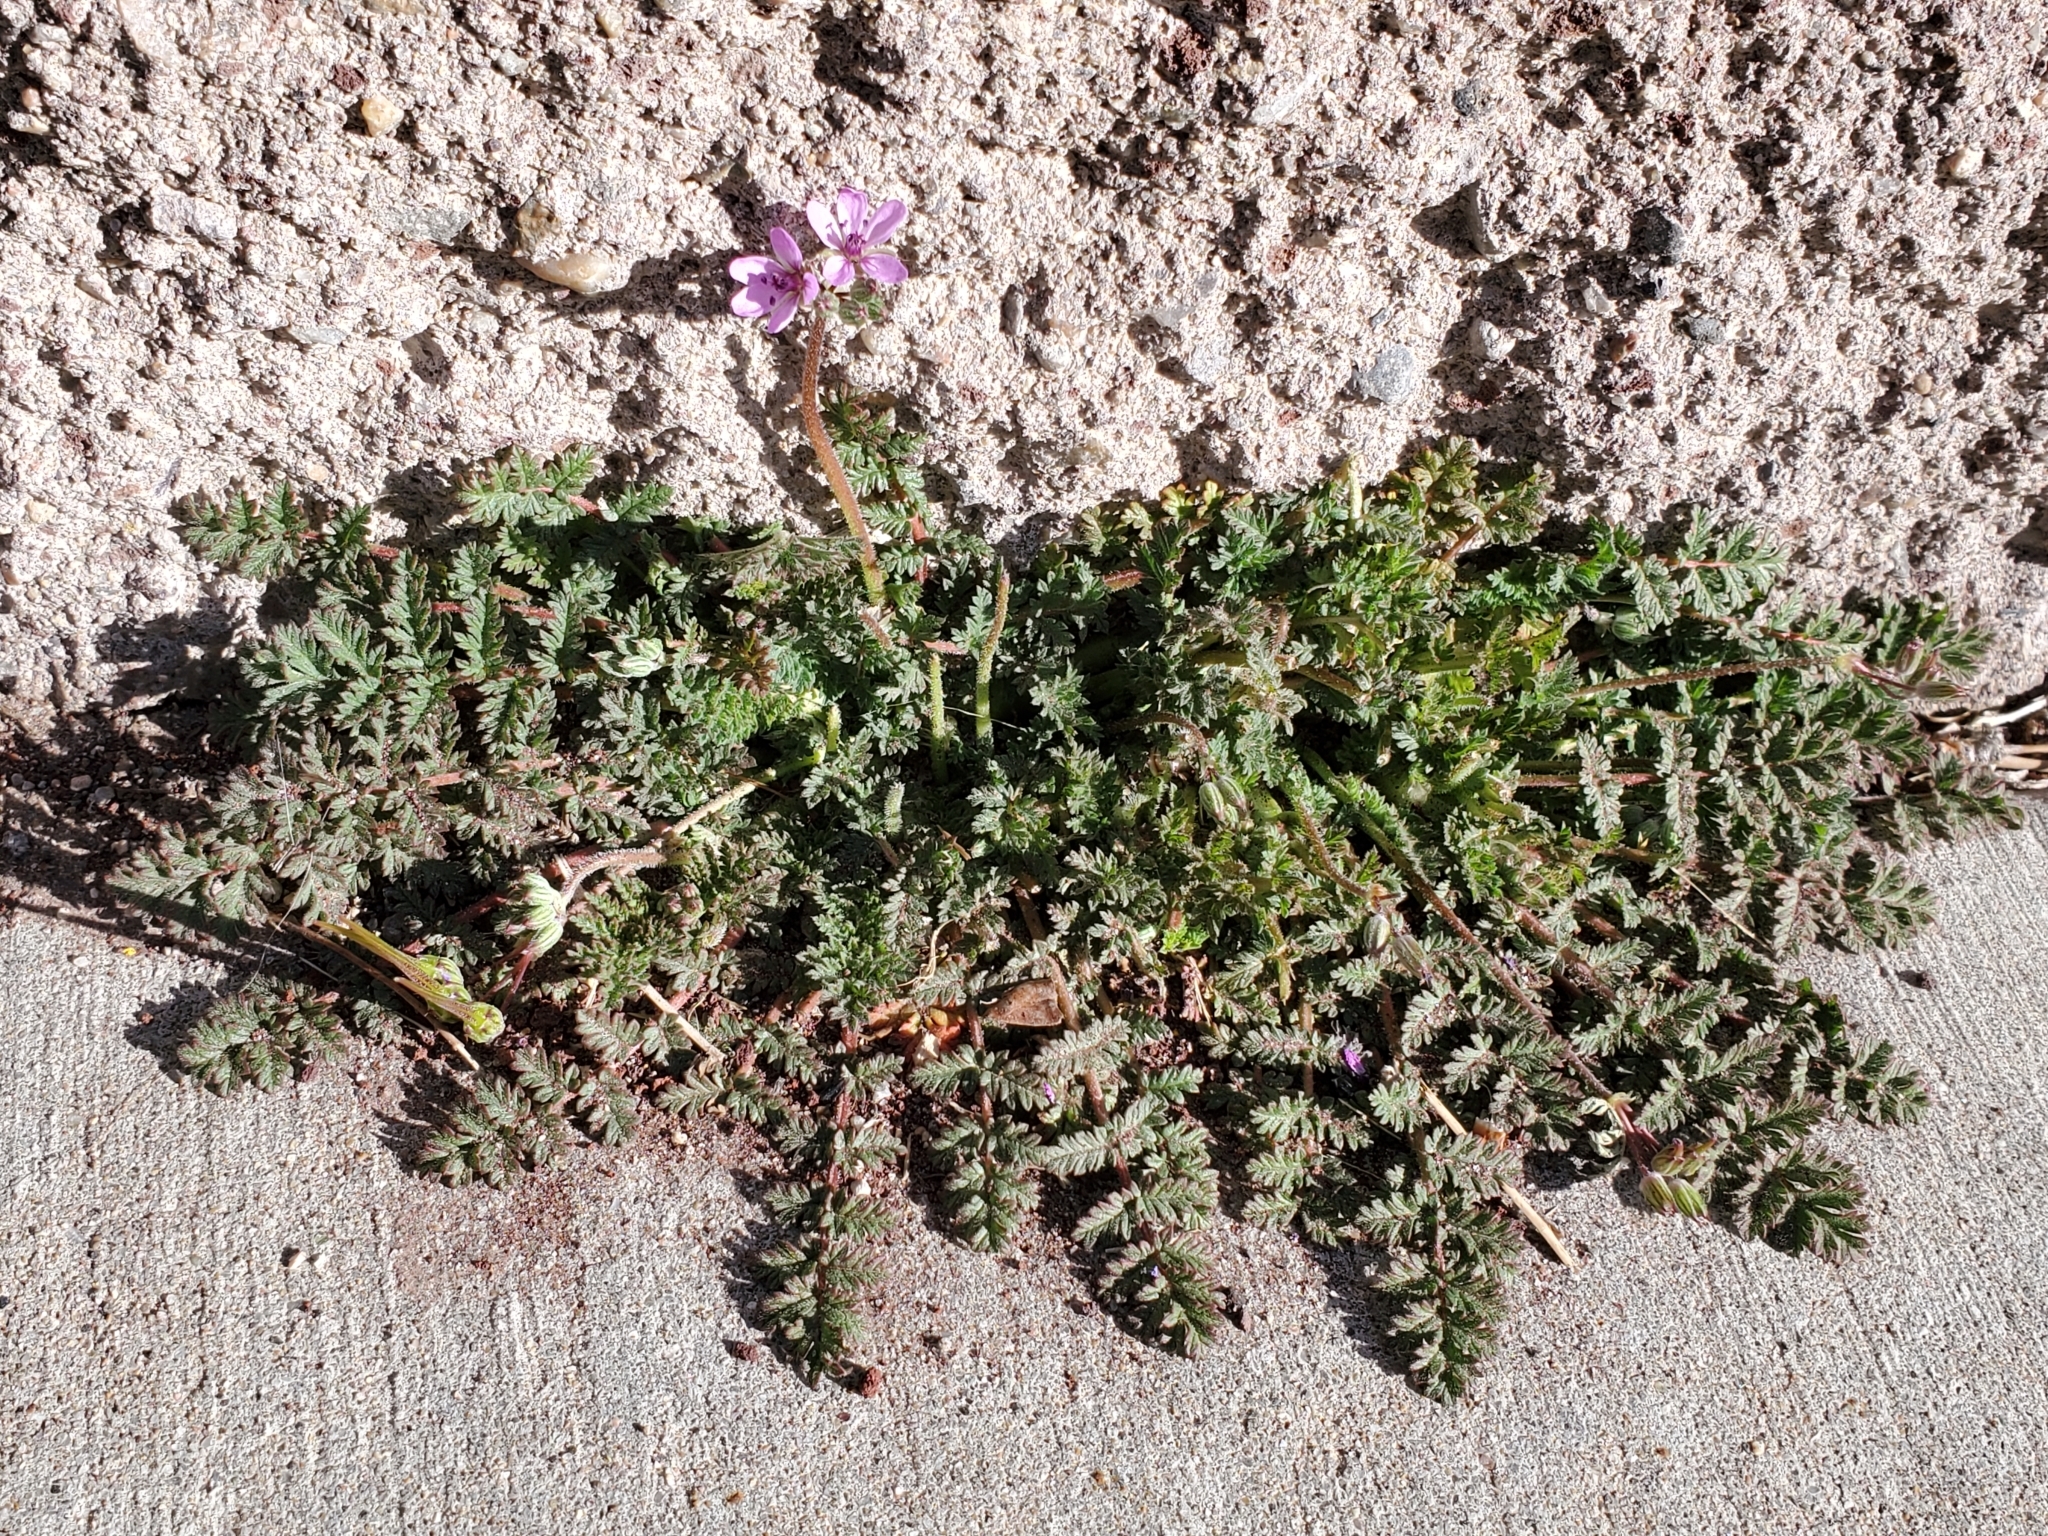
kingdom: Plantae
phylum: Tracheophyta
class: Magnoliopsida
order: Geraniales
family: Geraniaceae
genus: Erodium
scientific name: Erodium cicutarium
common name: Common stork's-bill
